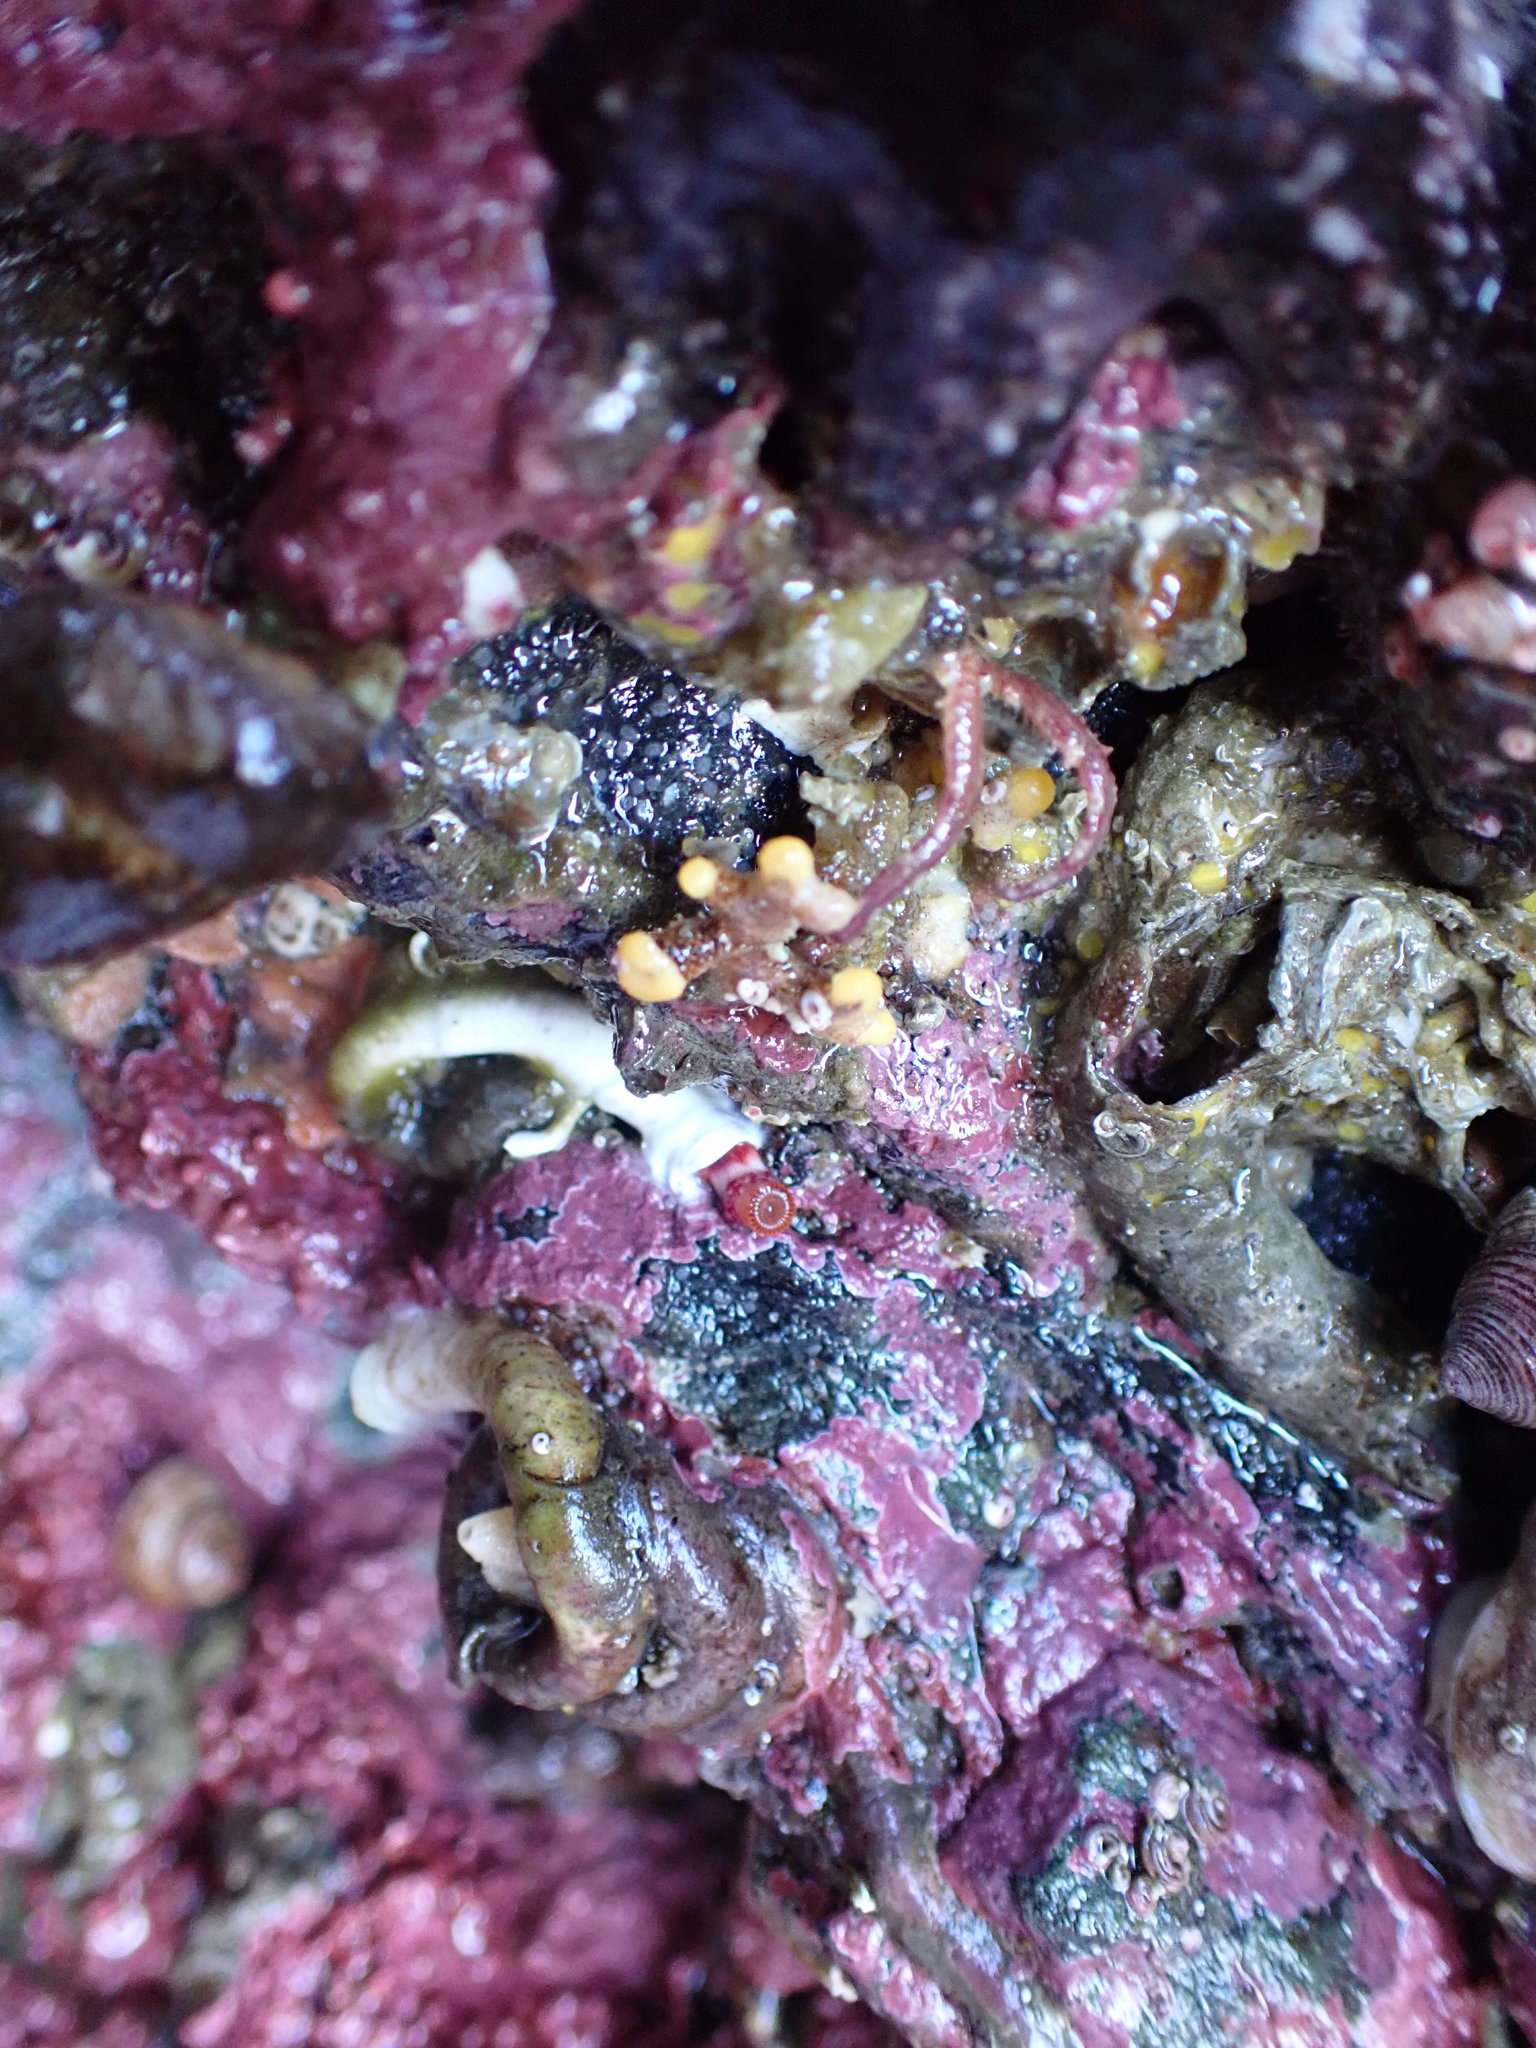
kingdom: Animalia
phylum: Bryozoa
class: Stenolaemata
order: Cyclostomatida
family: Heteroporidae
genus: Heteropora
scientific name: Heteropora pacifica
